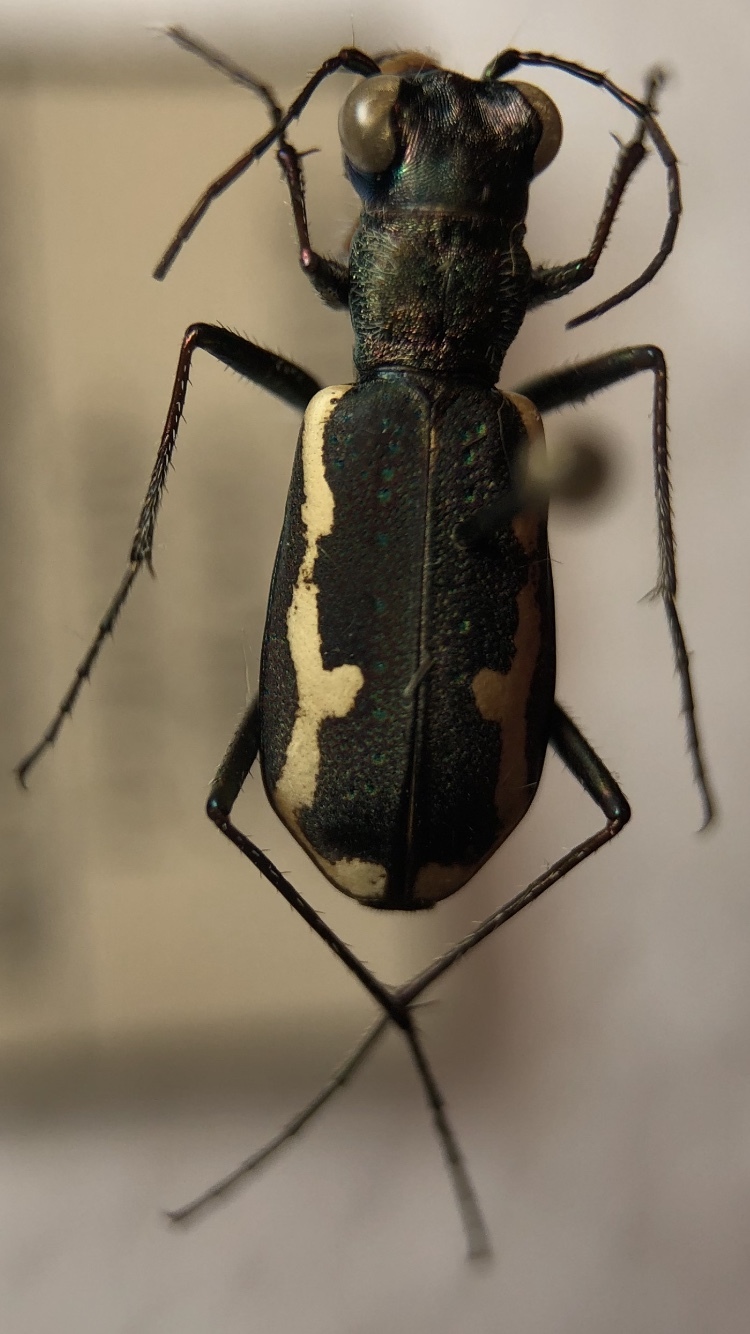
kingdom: Animalia
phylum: Arthropoda
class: Insecta
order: Coleoptera
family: Carabidae
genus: Cylindera
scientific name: Cylindera paludosa
